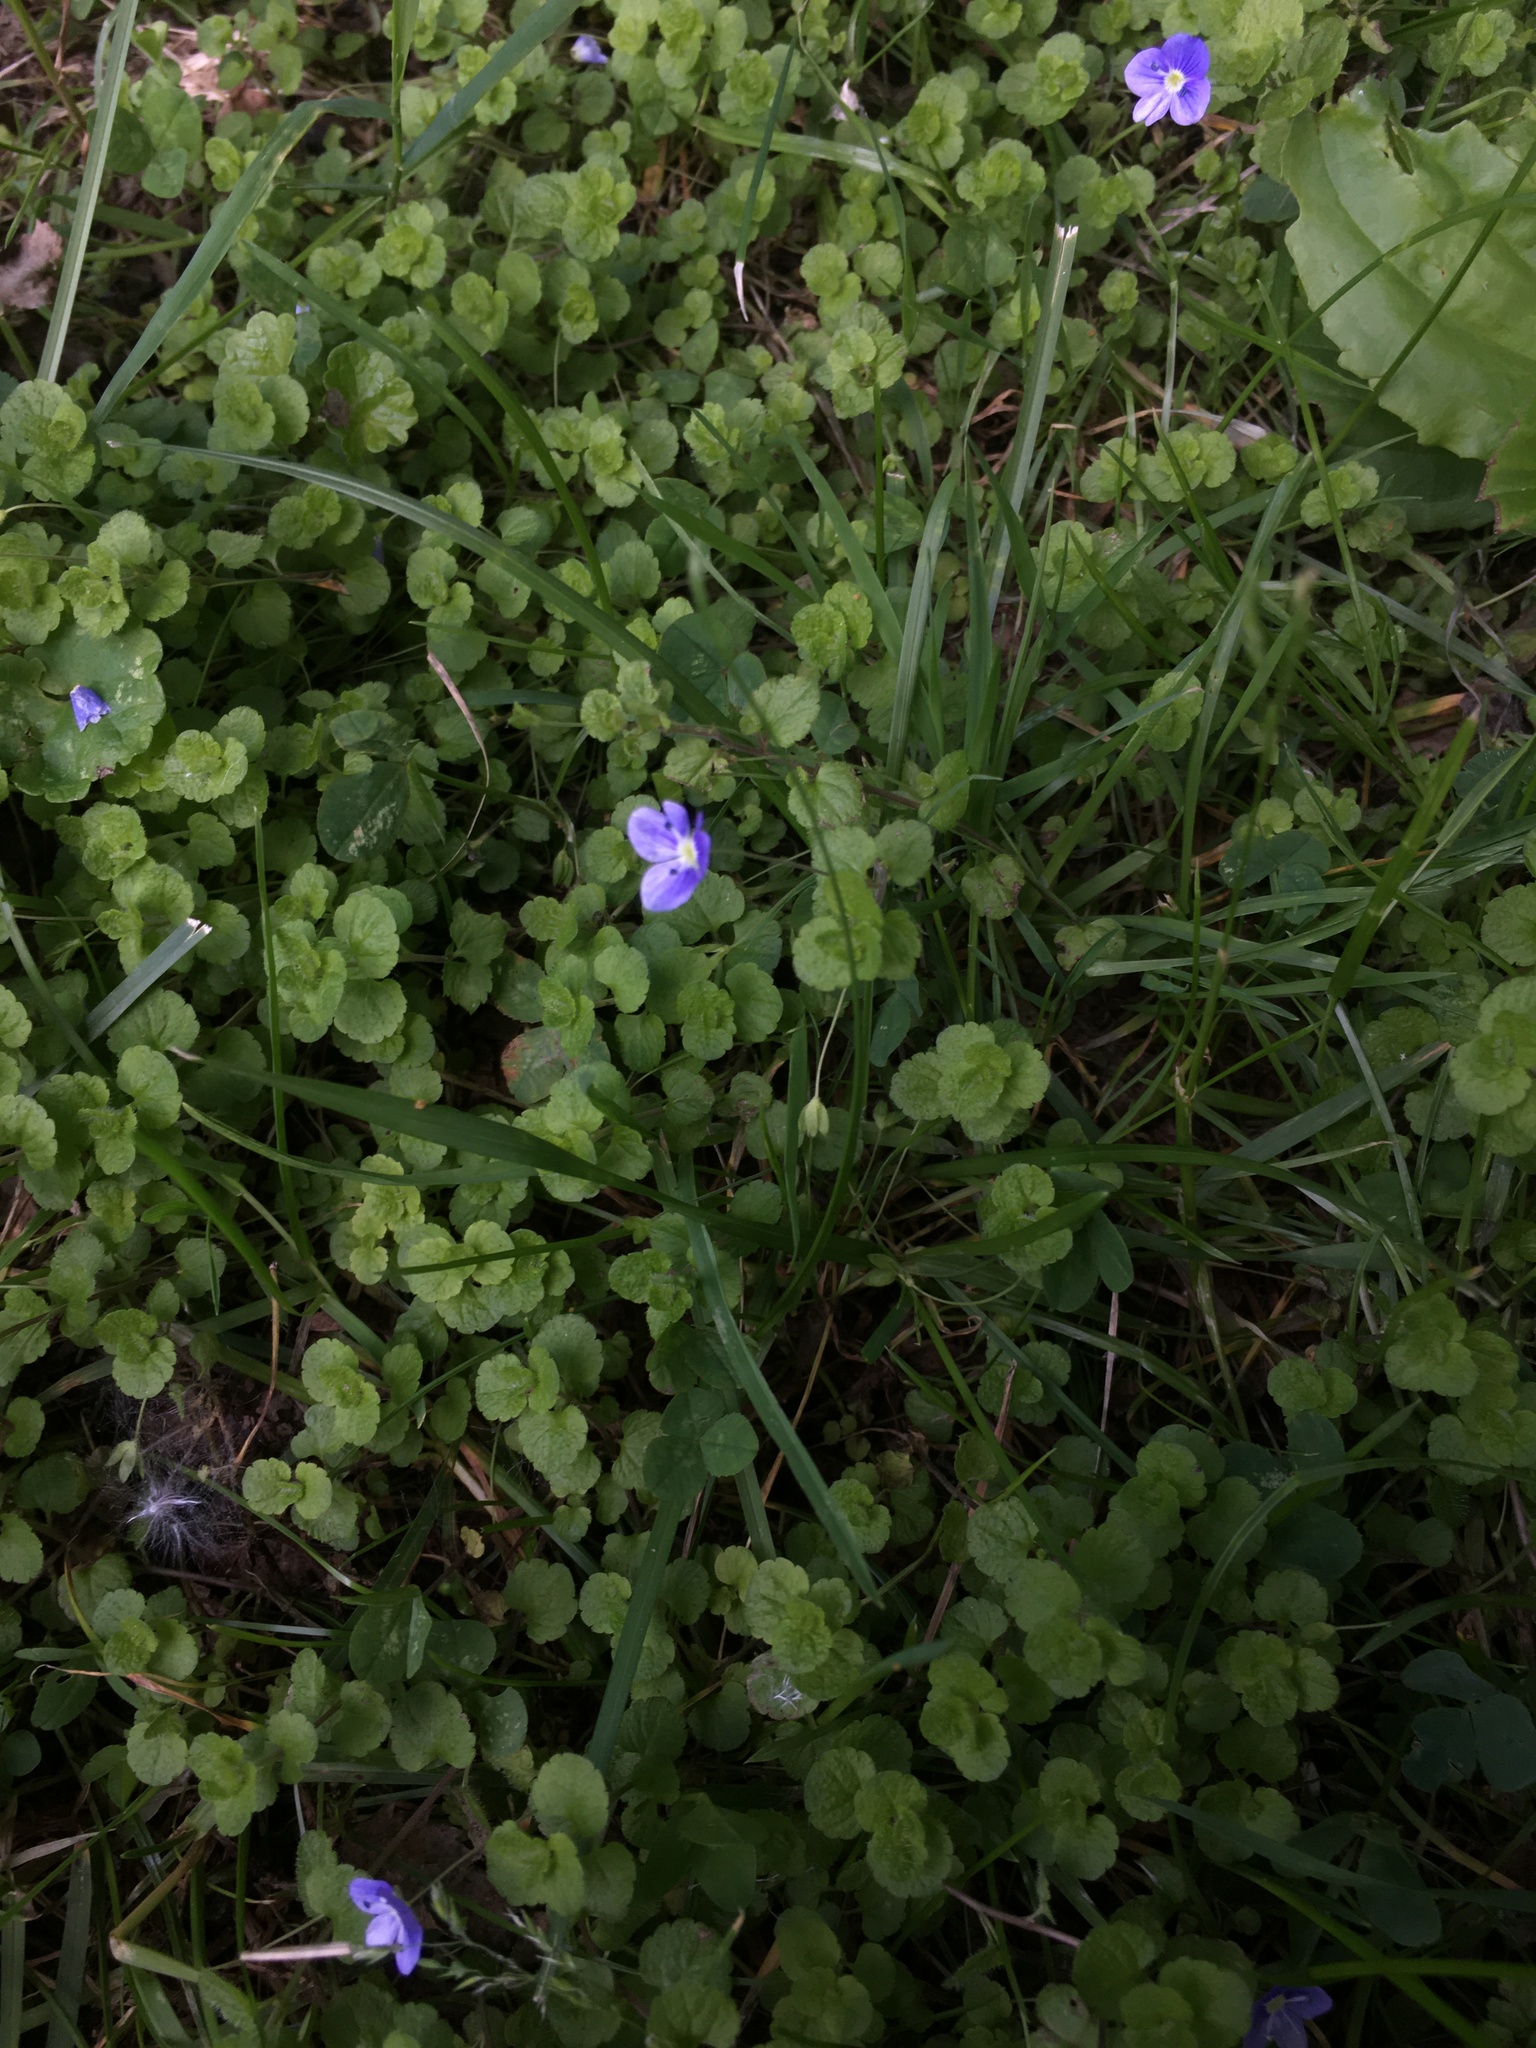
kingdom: Plantae
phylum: Tracheophyta
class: Magnoliopsida
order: Lamiales
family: Plantaginaceae
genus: Veronica
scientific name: Veronica filiformis
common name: Slender speedwell
